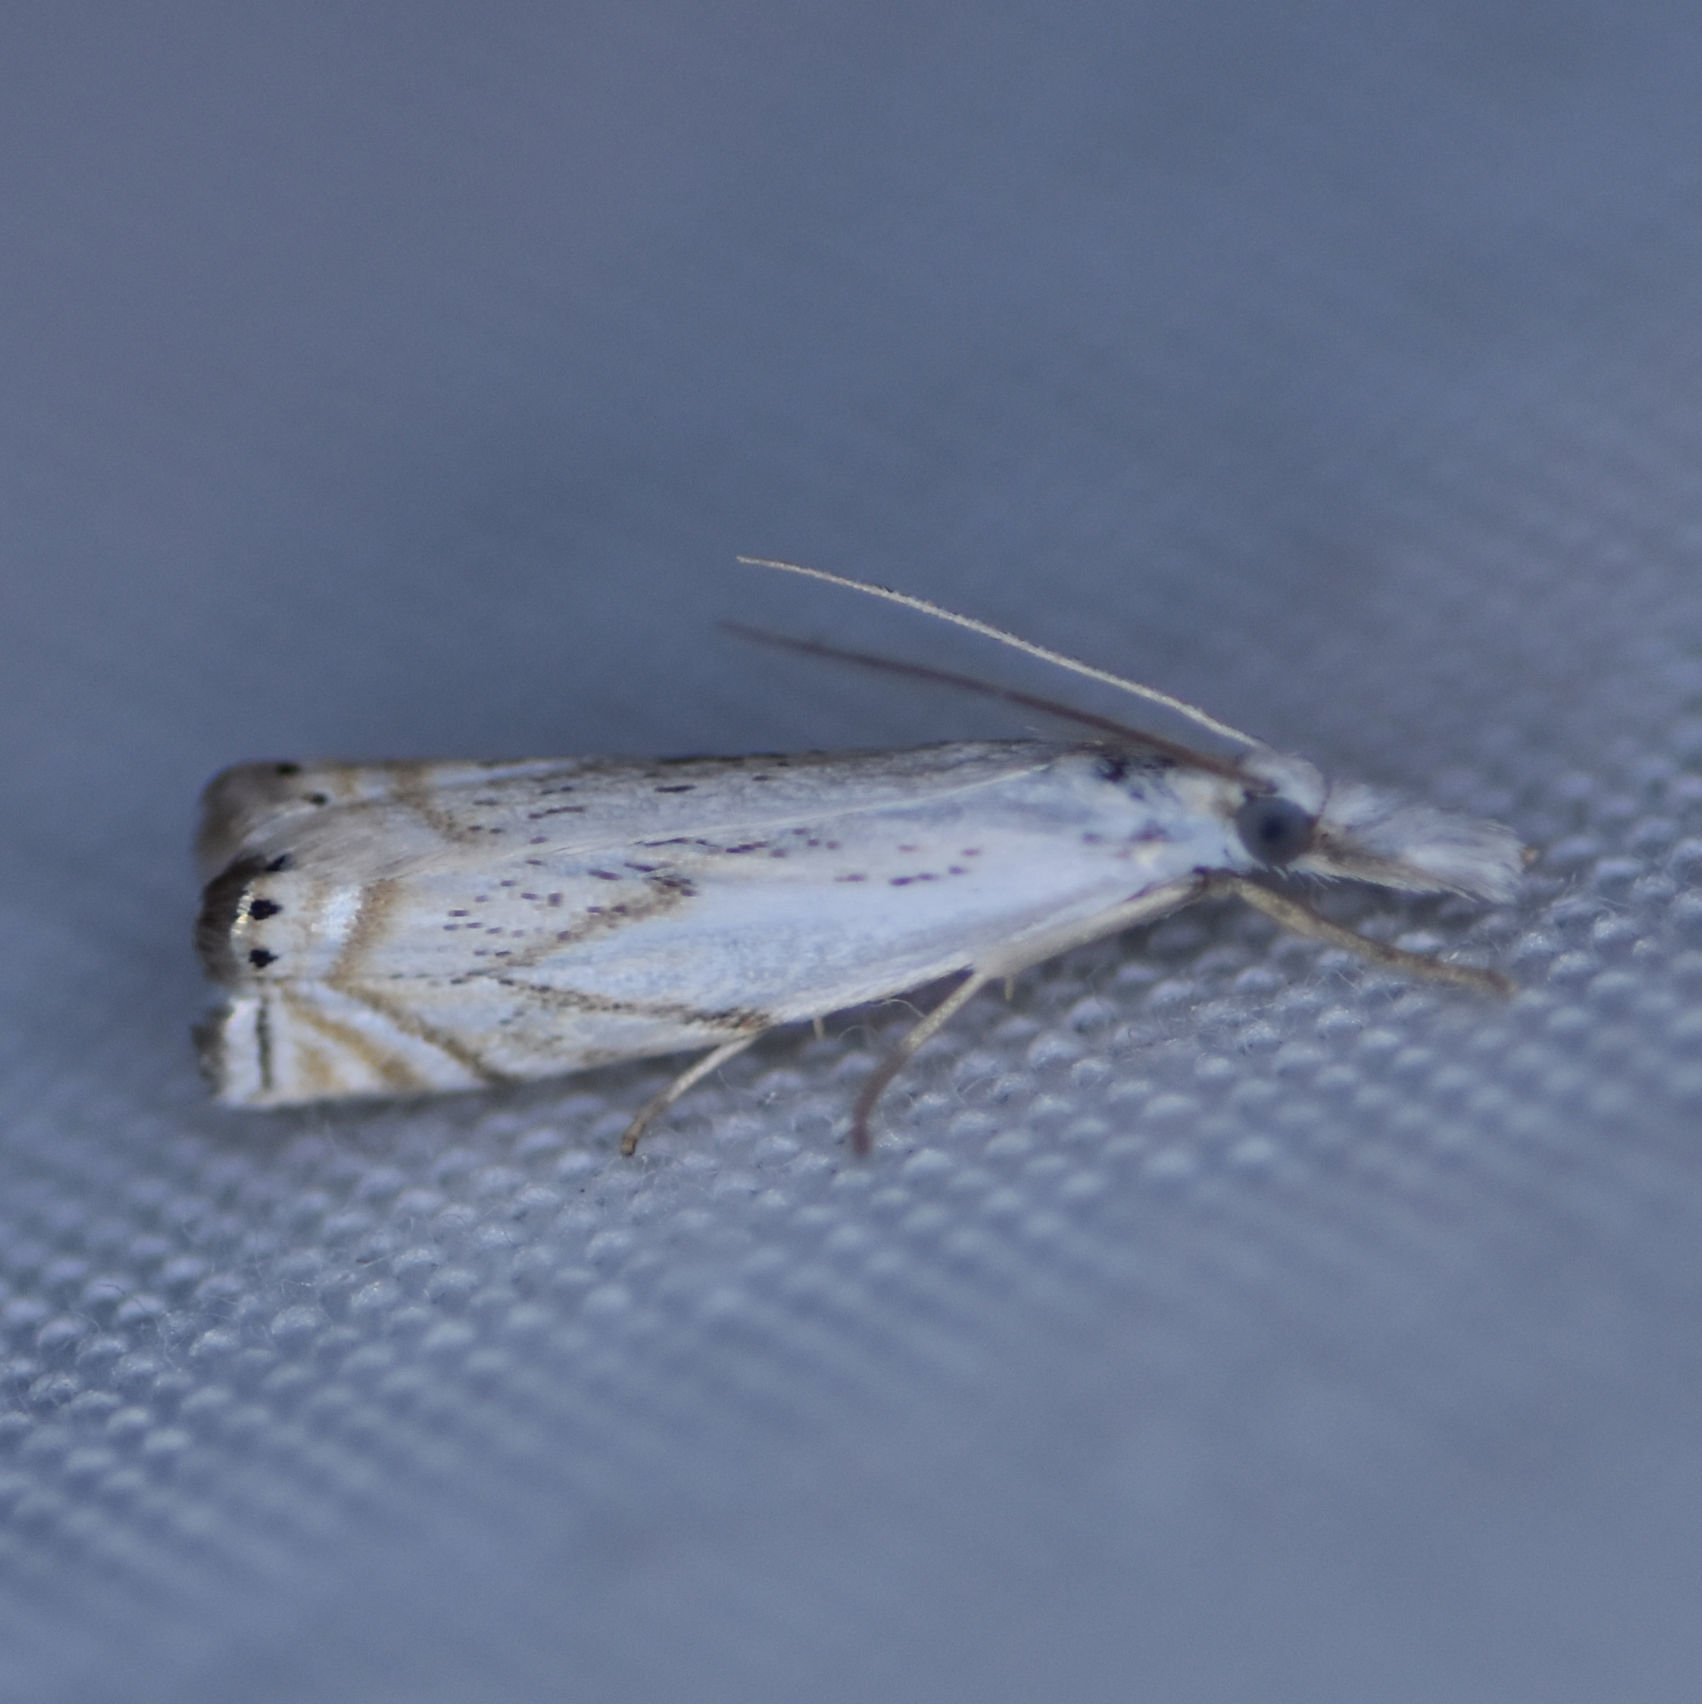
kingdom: Animalia
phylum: Arthropoda
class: Insecta
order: Lepidoptera
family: Crambidae
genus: Crambus
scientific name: Crambus albellus
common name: Small white grass-veneer
